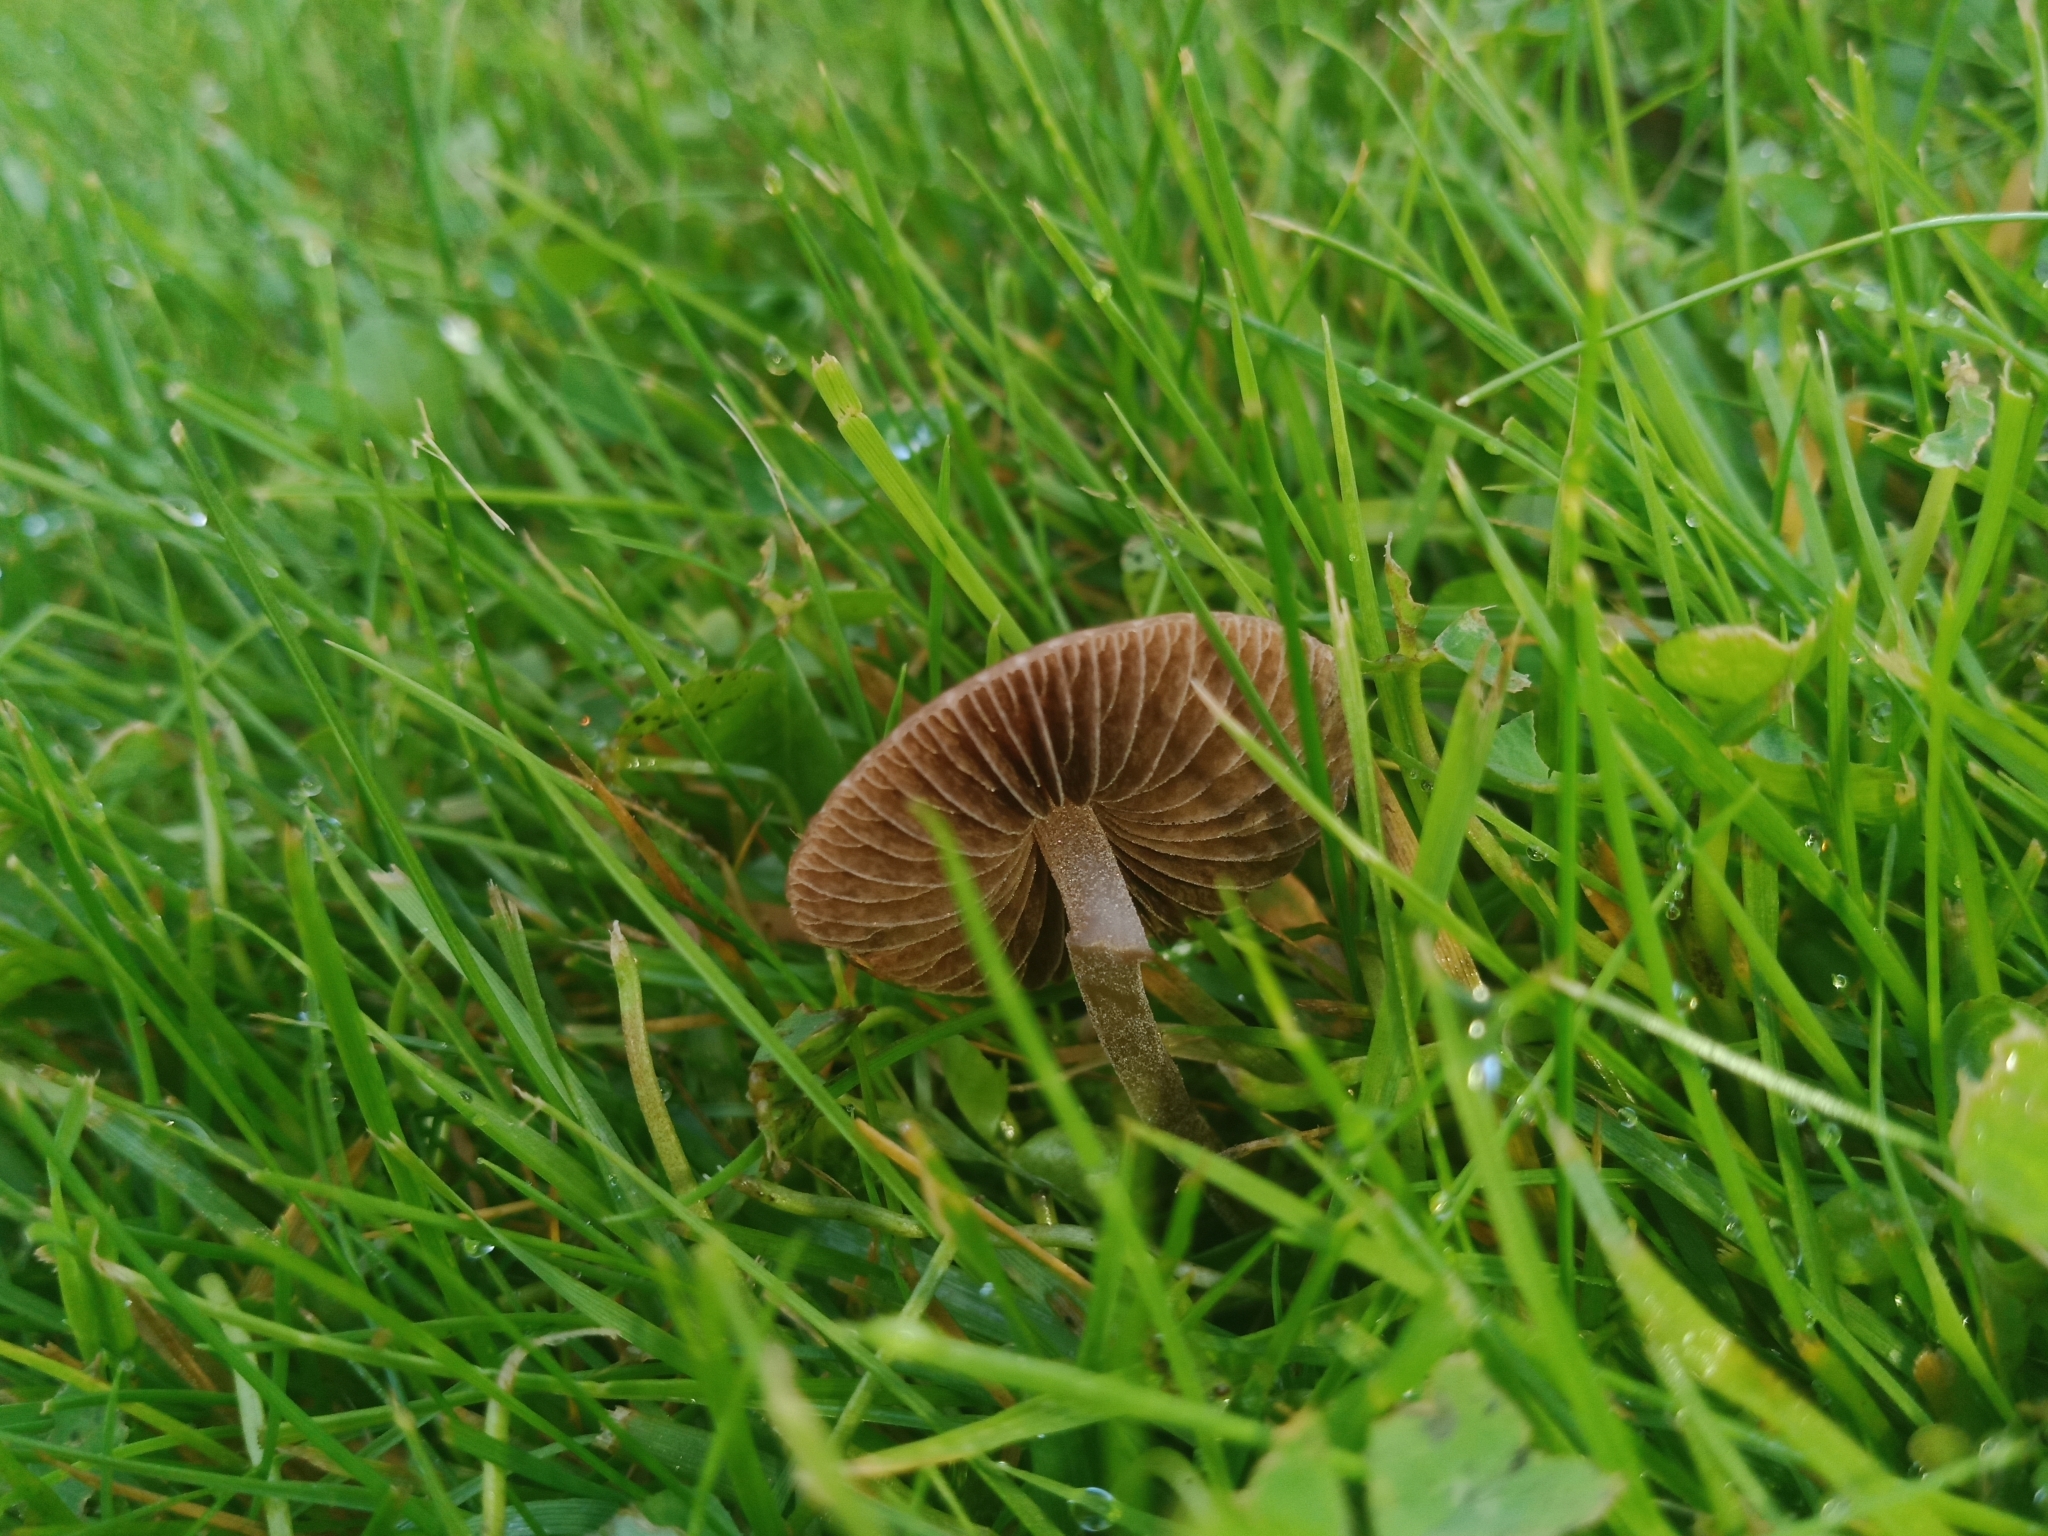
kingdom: Fungi
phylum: Basidiomycota
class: Agaricomycetes
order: Agaricales
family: Bolbitiaceae
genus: Panaeolina
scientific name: Panaeolina foenisecii
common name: Brown hay cap
